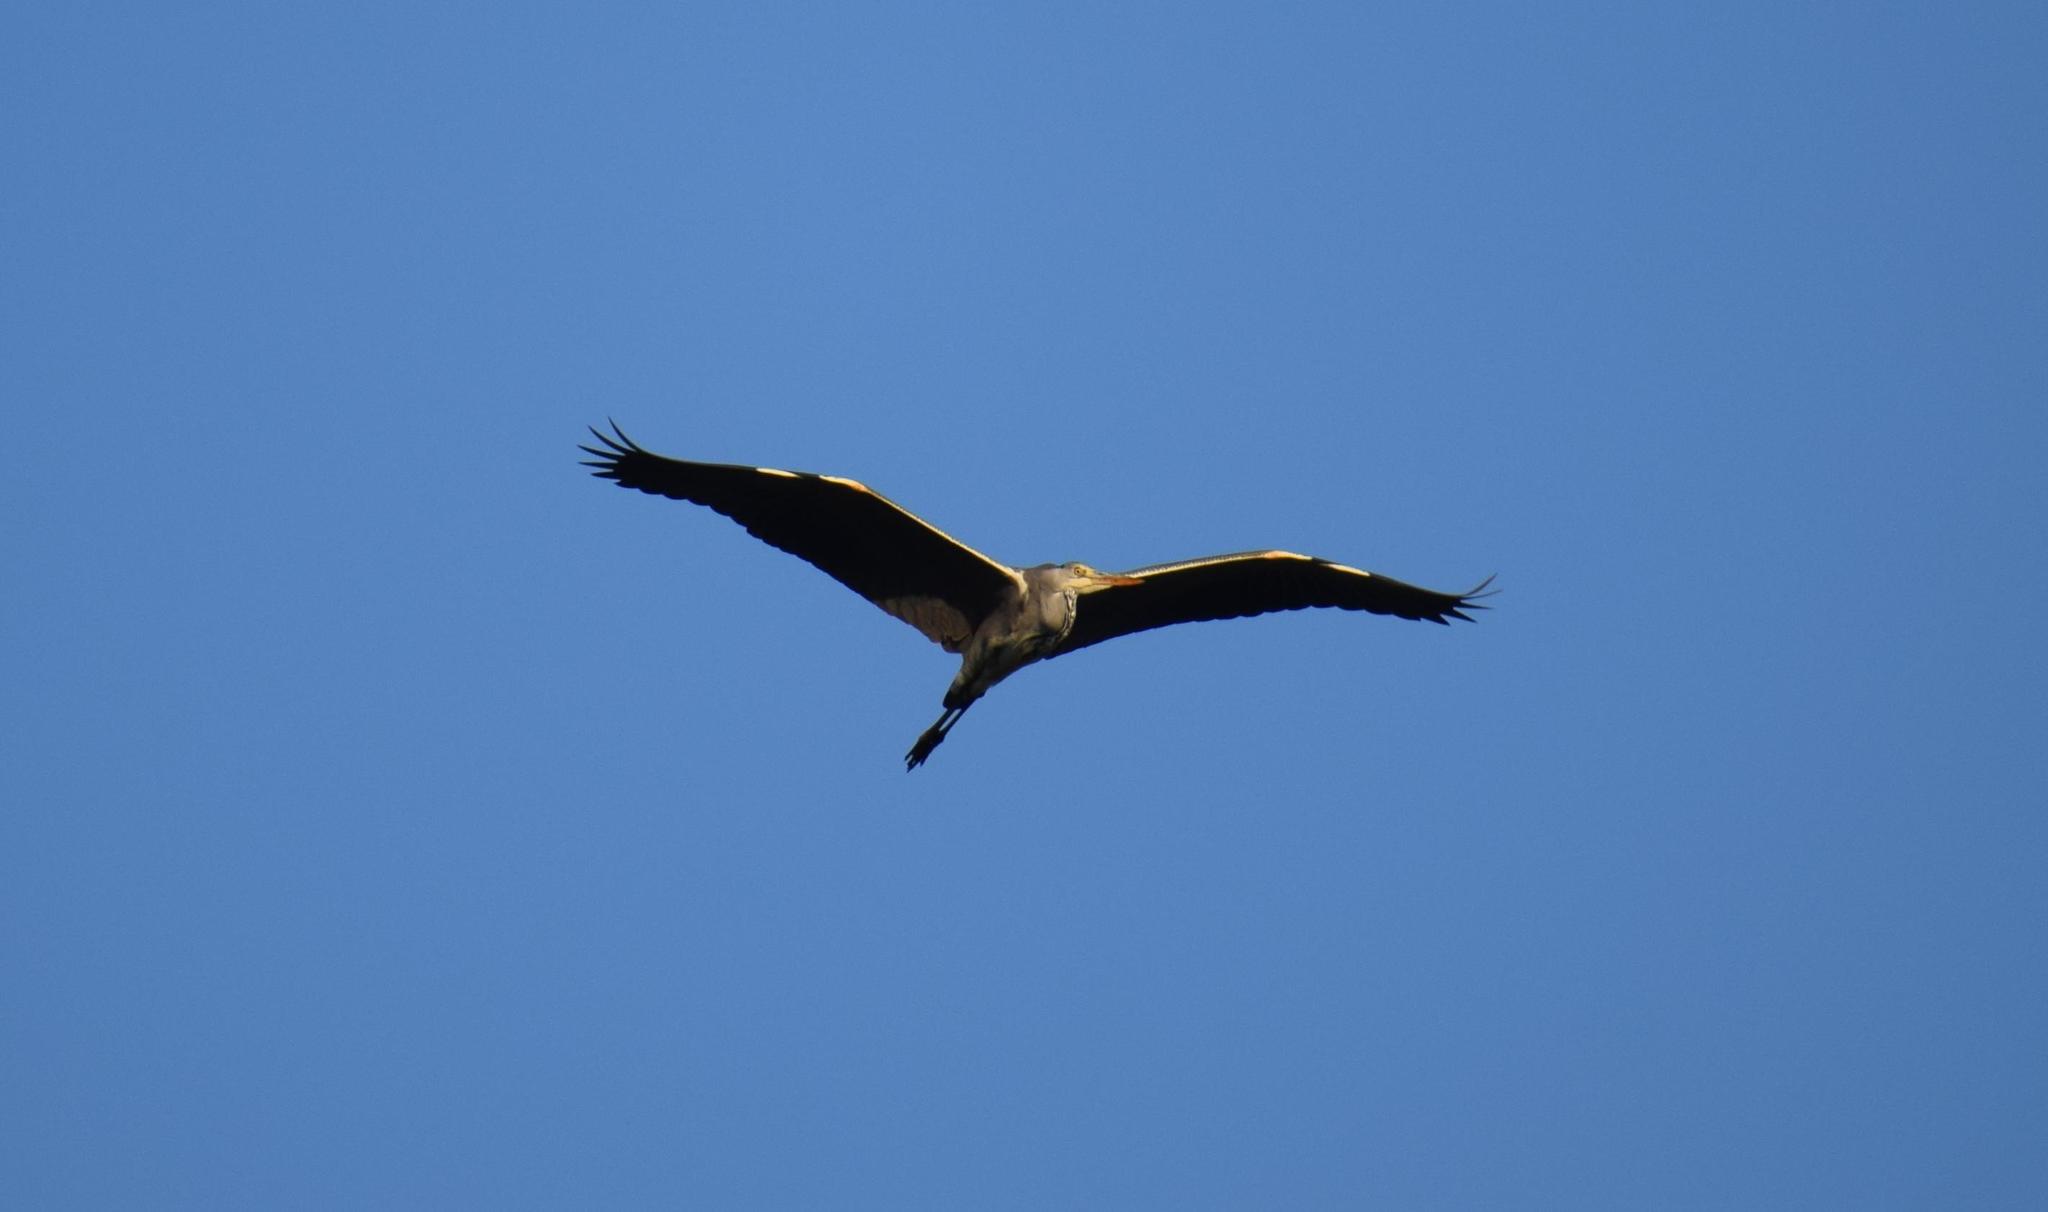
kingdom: Animalia
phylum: Chordata
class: Aves
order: Pelecaniformes
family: Ardeidae
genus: Ardea
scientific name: Ardea cinerea
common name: Grey heron
